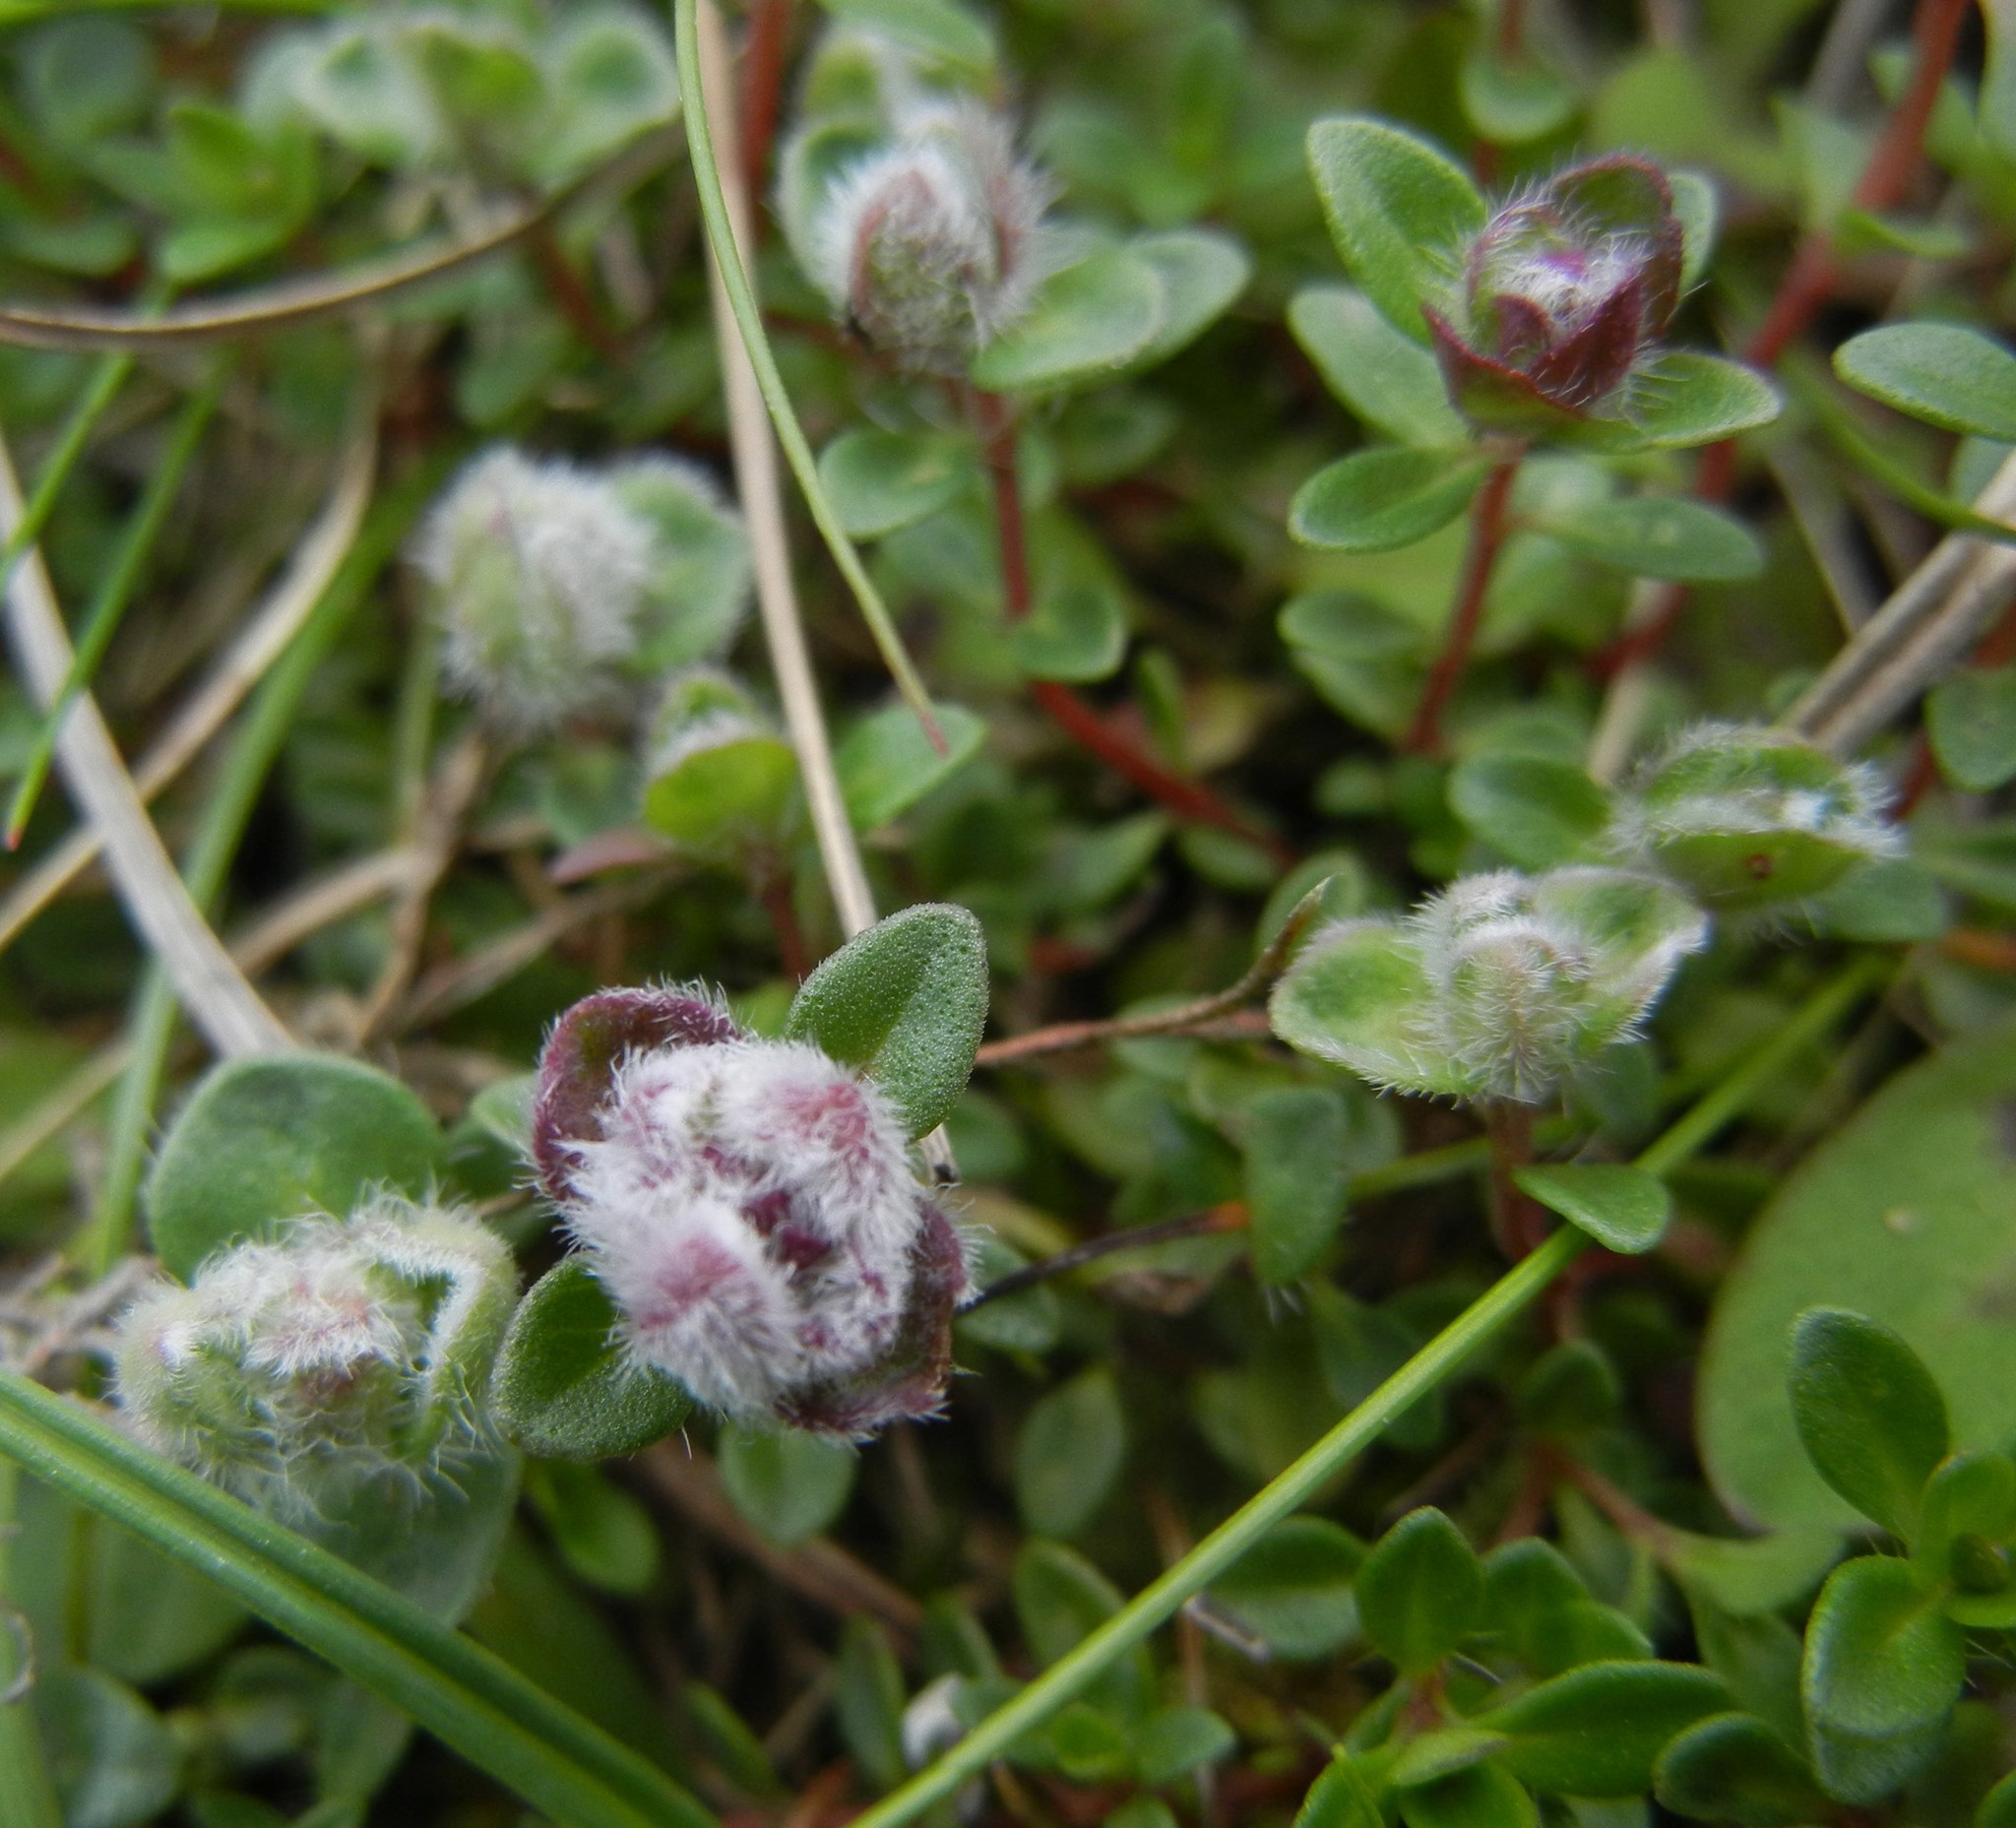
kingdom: Animalia
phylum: Arthropoda
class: Arachnida
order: Trombidiformes
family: Eriophyidae
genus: Aceria
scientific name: Aceria thomasi
